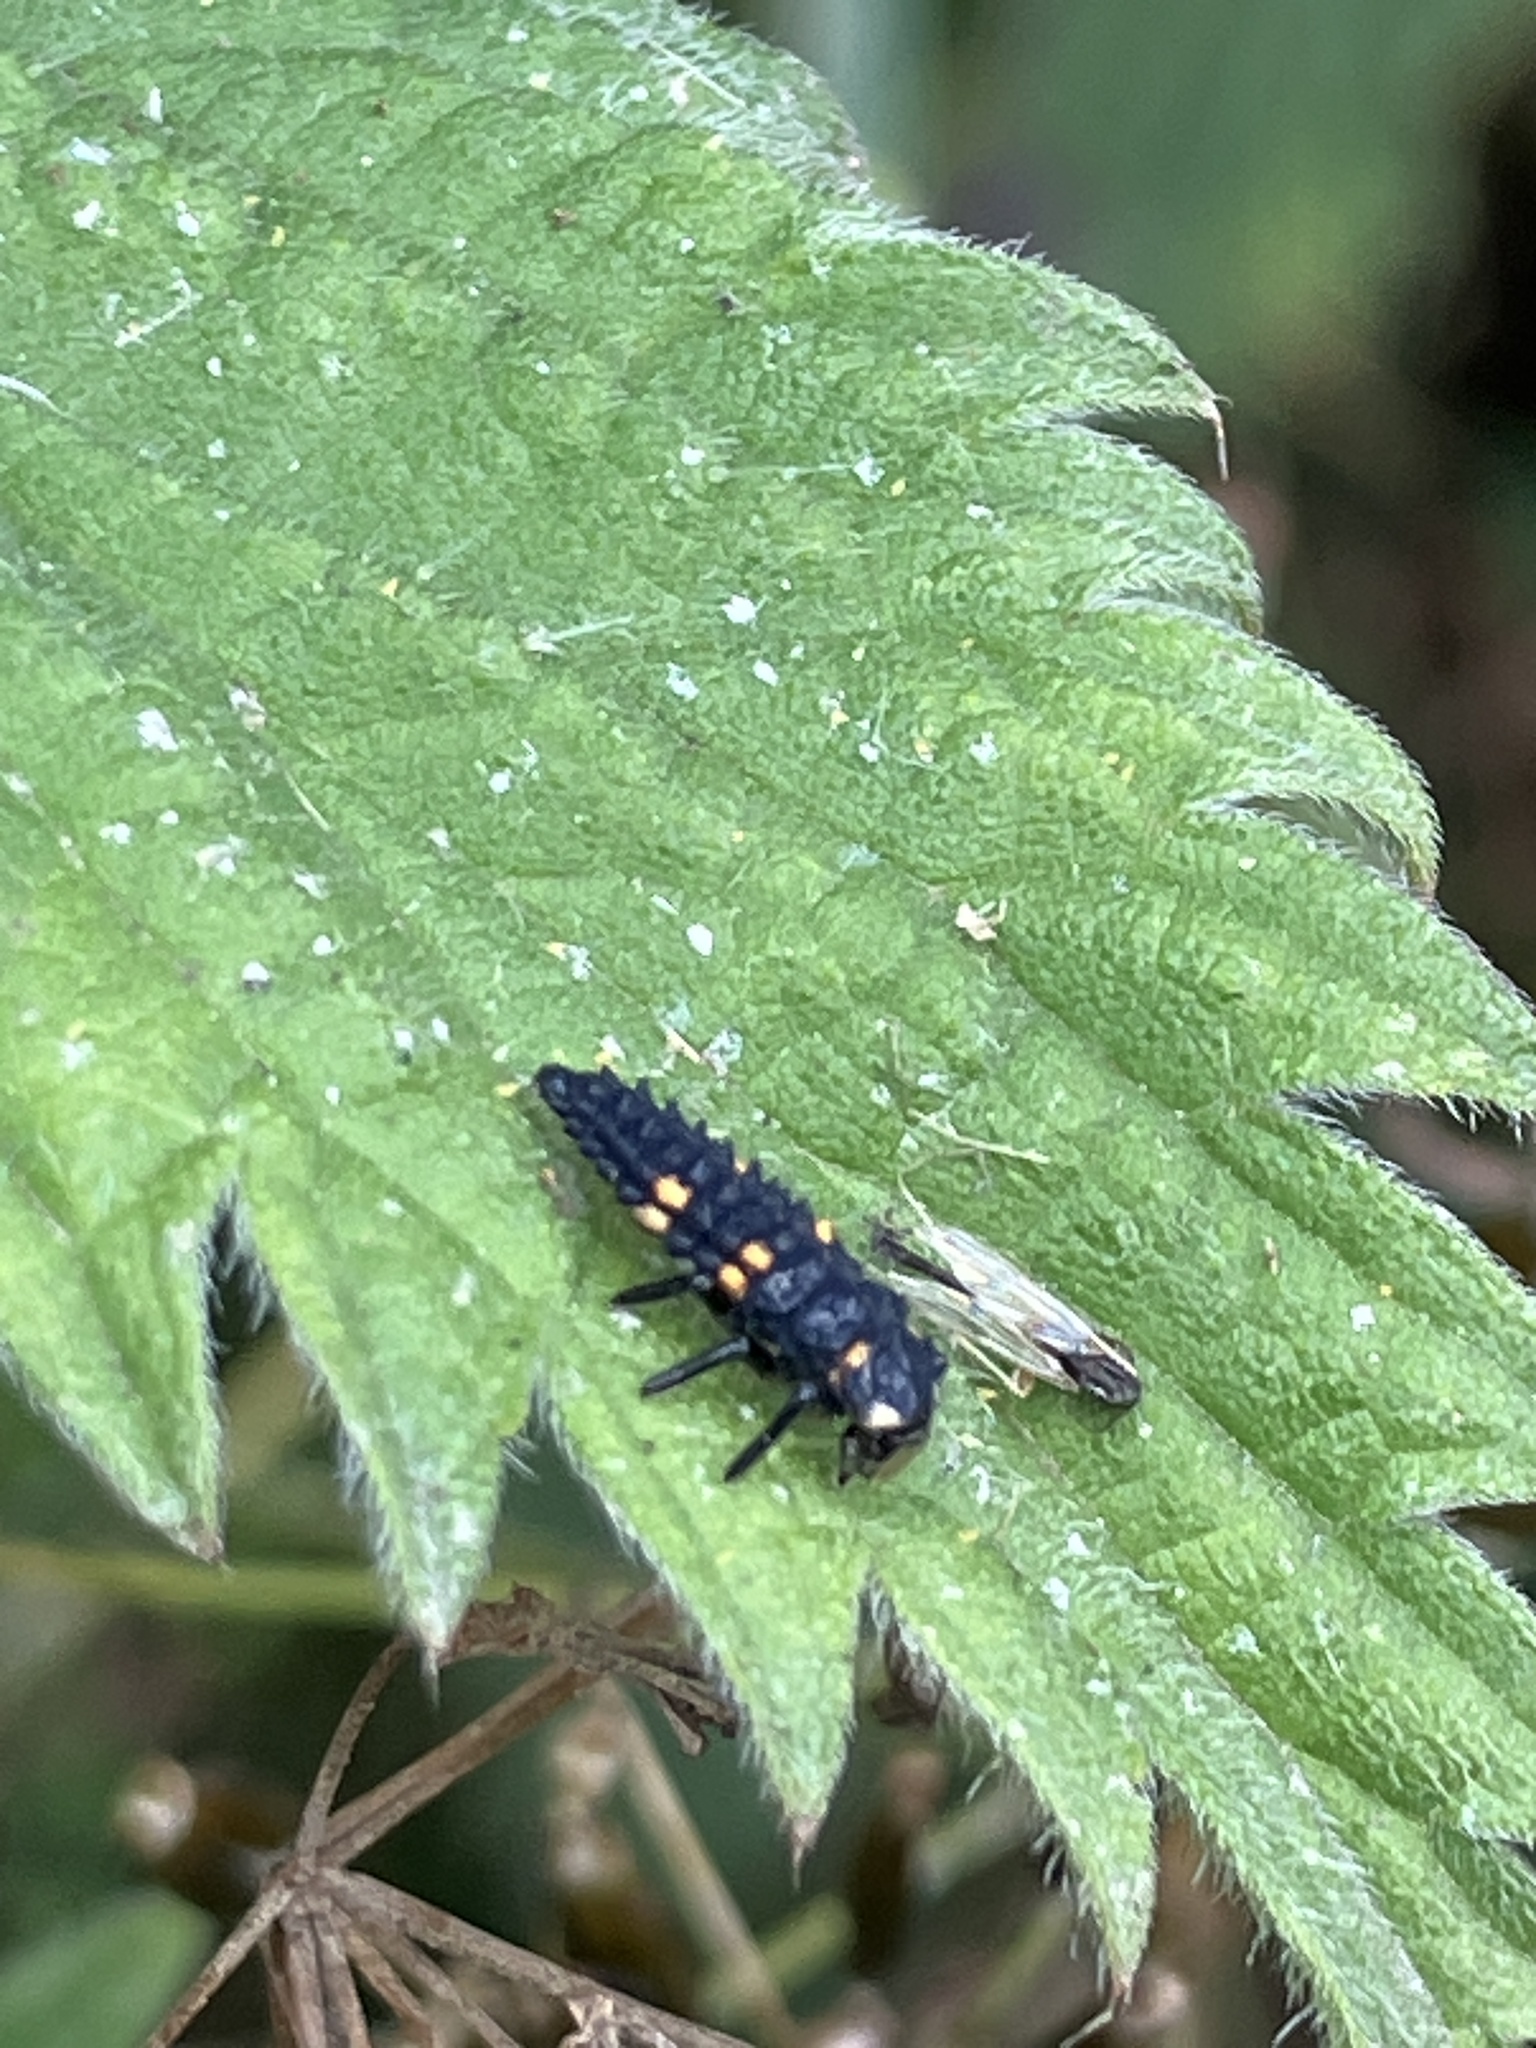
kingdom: Animalia
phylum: Arthropoda
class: Insecta
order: Coleoptera
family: Coccinellidae
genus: Coccinella
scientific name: Coccinella septempunctata
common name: Sevenspotted lady beetle
